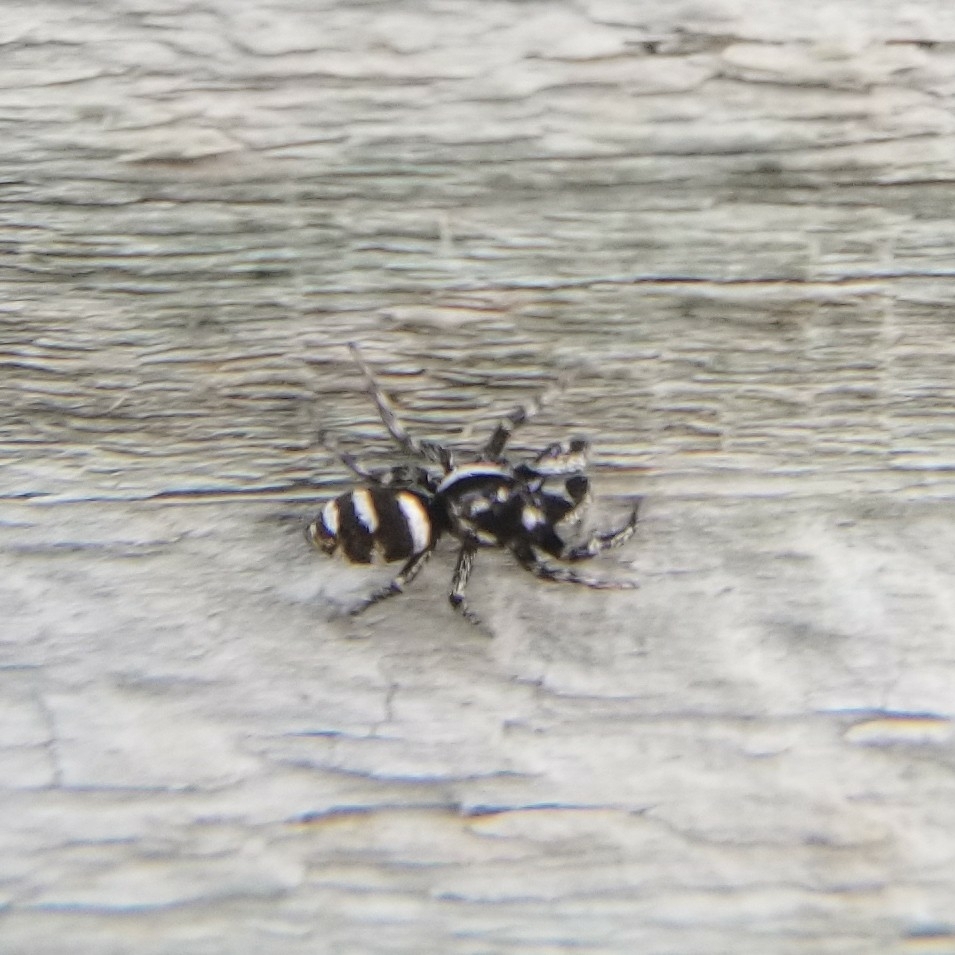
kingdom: Animalia
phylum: Arthropoda
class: Arachnida
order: Araneae
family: Salticidae
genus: Salticus
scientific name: Salticus scenicus
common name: Zebra jumper
